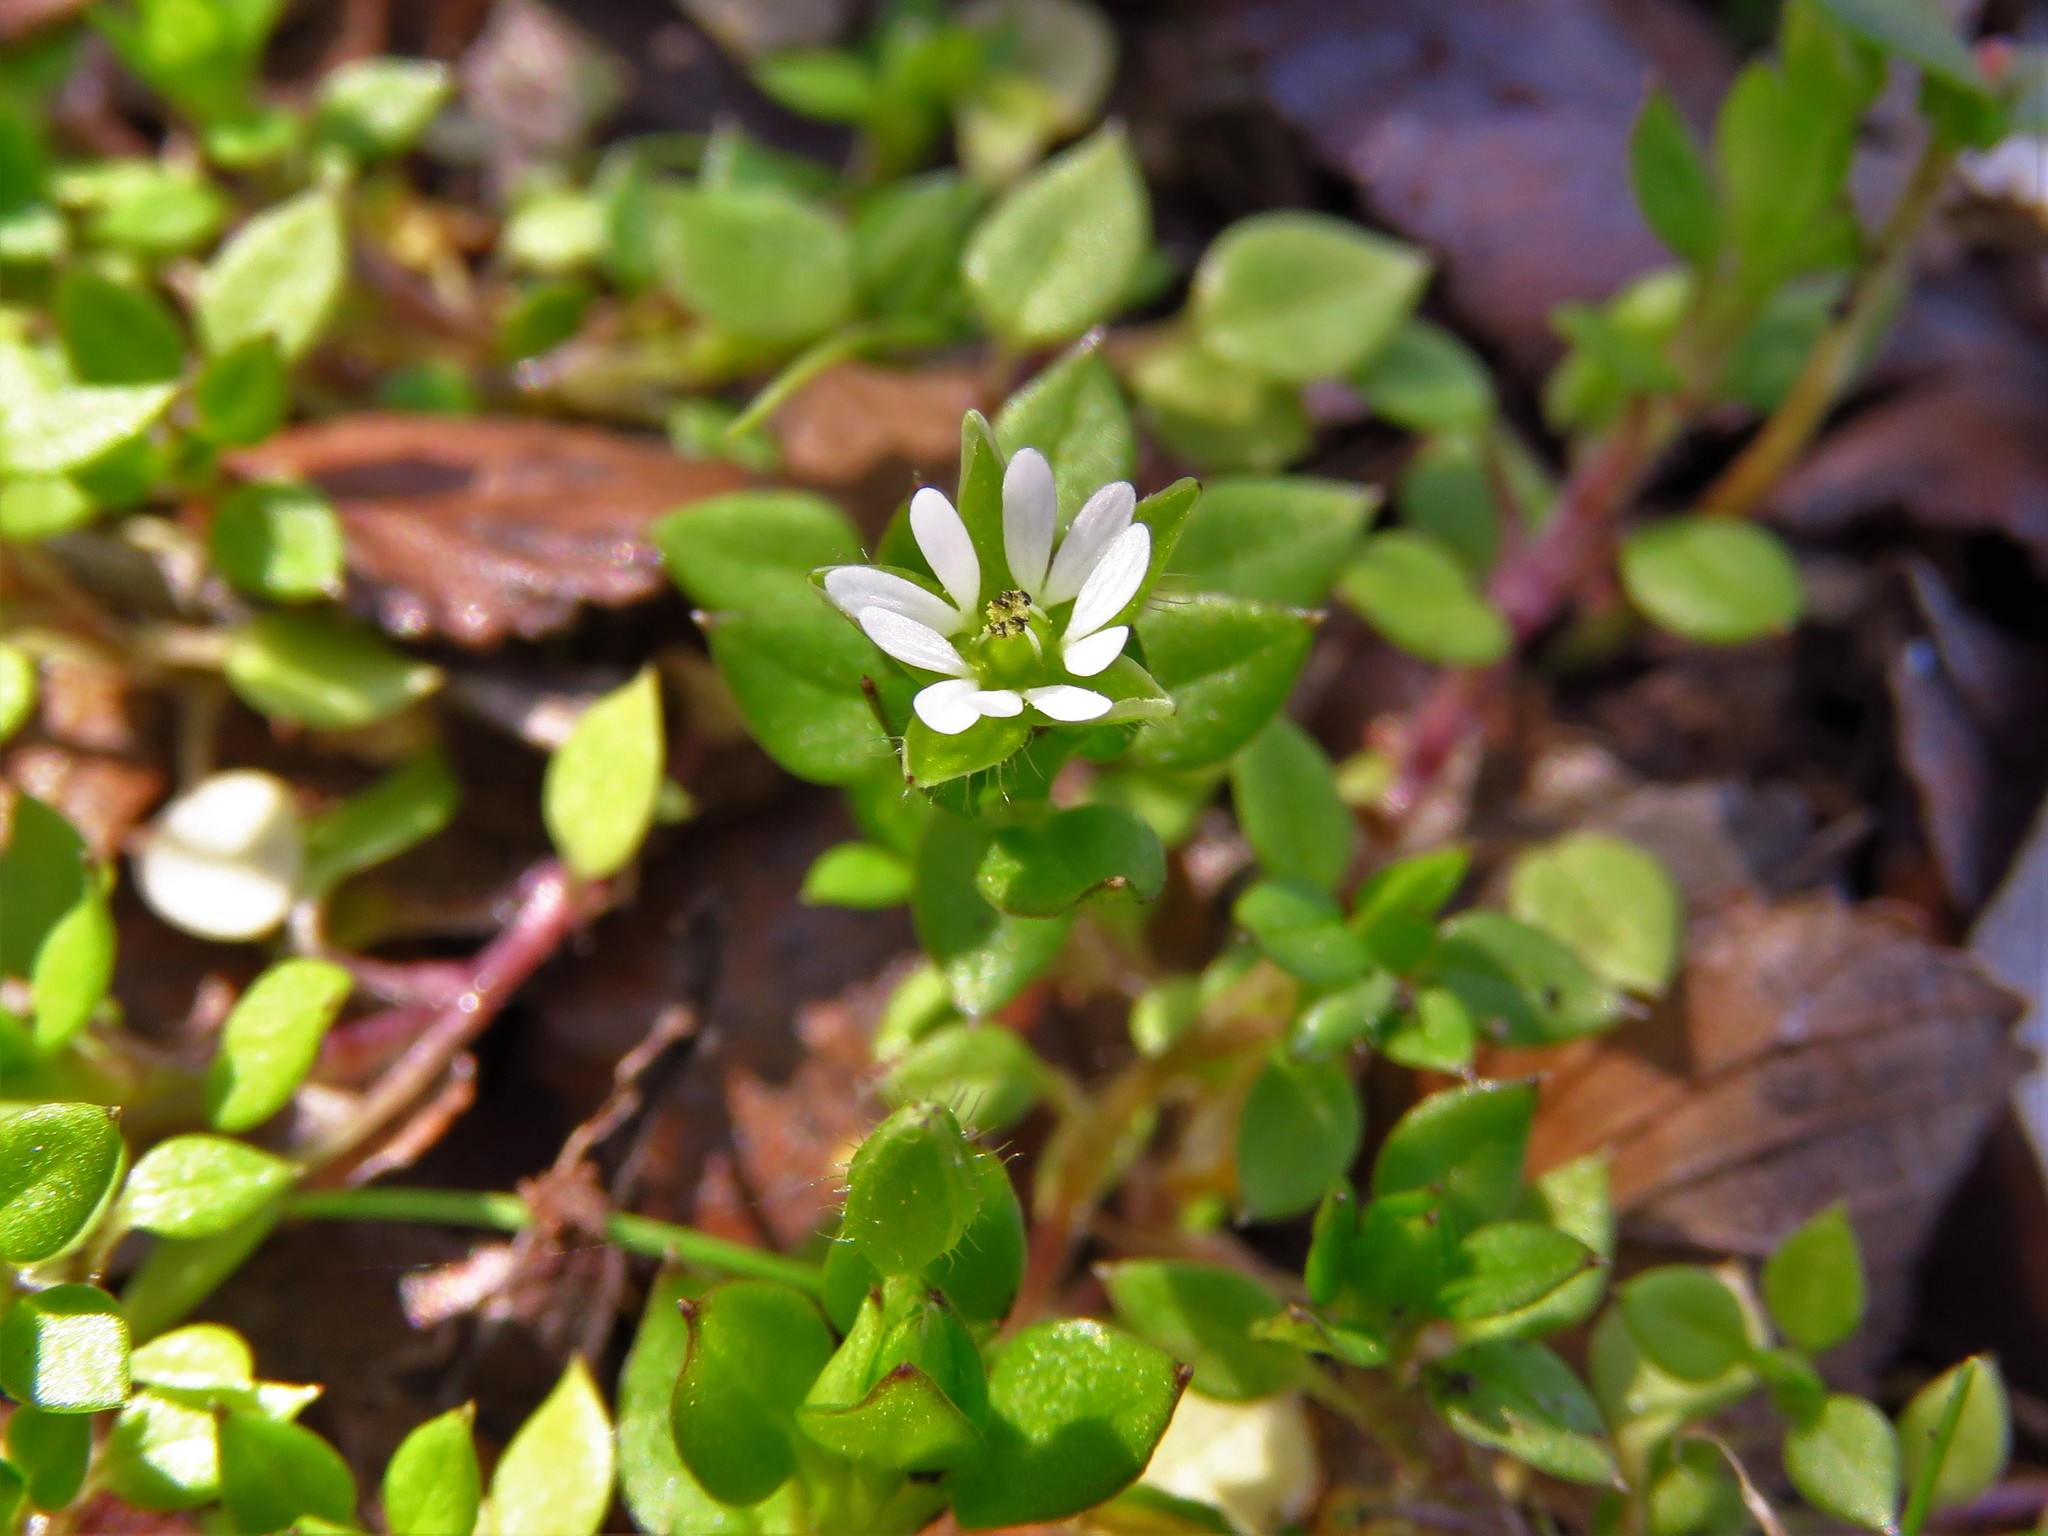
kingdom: Plantae
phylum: Tracheophyta
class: Magnoliopsida
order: Caryophyllales
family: Caryophyllaceae
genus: Stellaria
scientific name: Stellaria media
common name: Common chickweed
